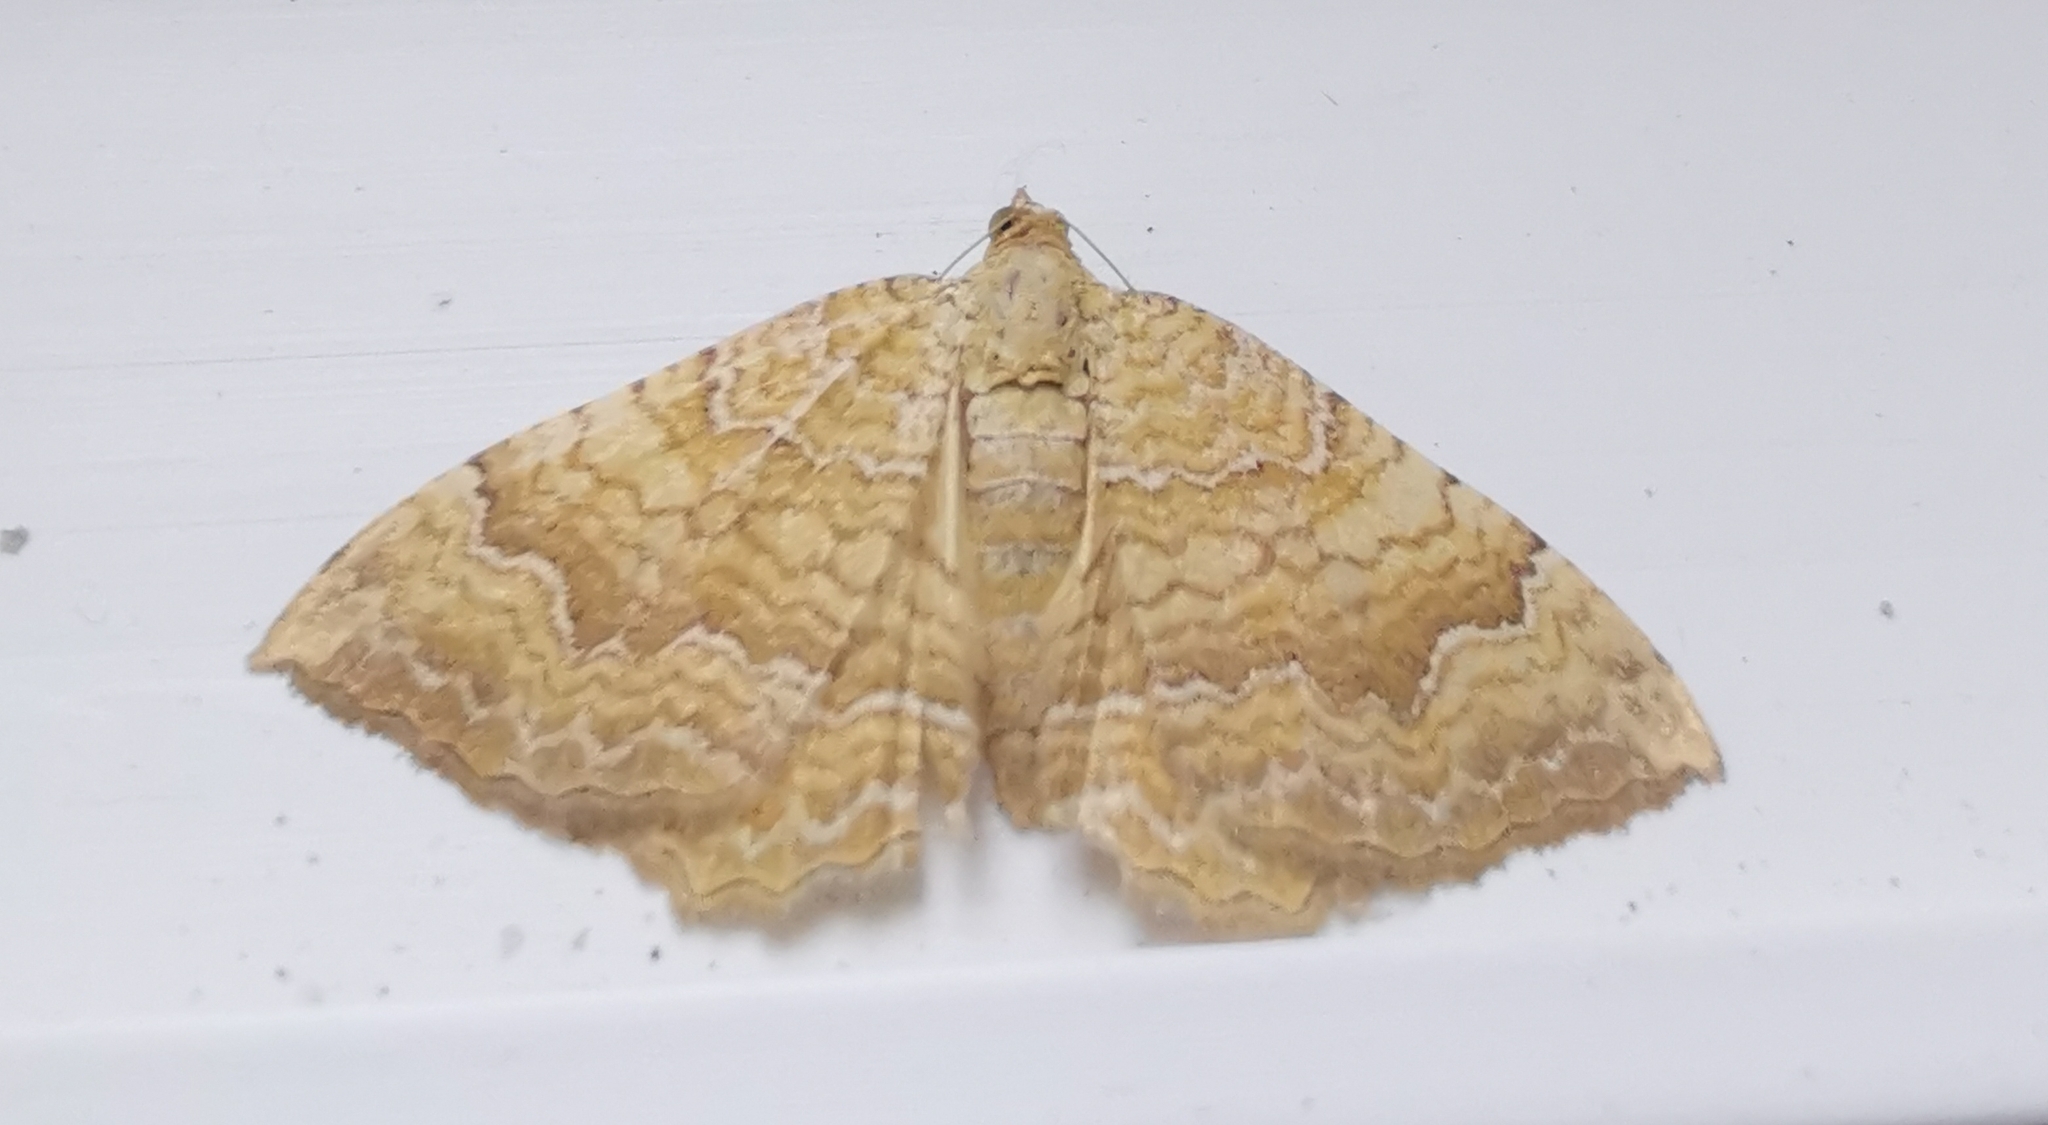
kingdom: Animalia
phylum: Arthropoda
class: Insecta
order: Lepidoptera
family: Geometridae
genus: Camptogramma
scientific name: Camptogramma bilineata
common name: Yellow shell
